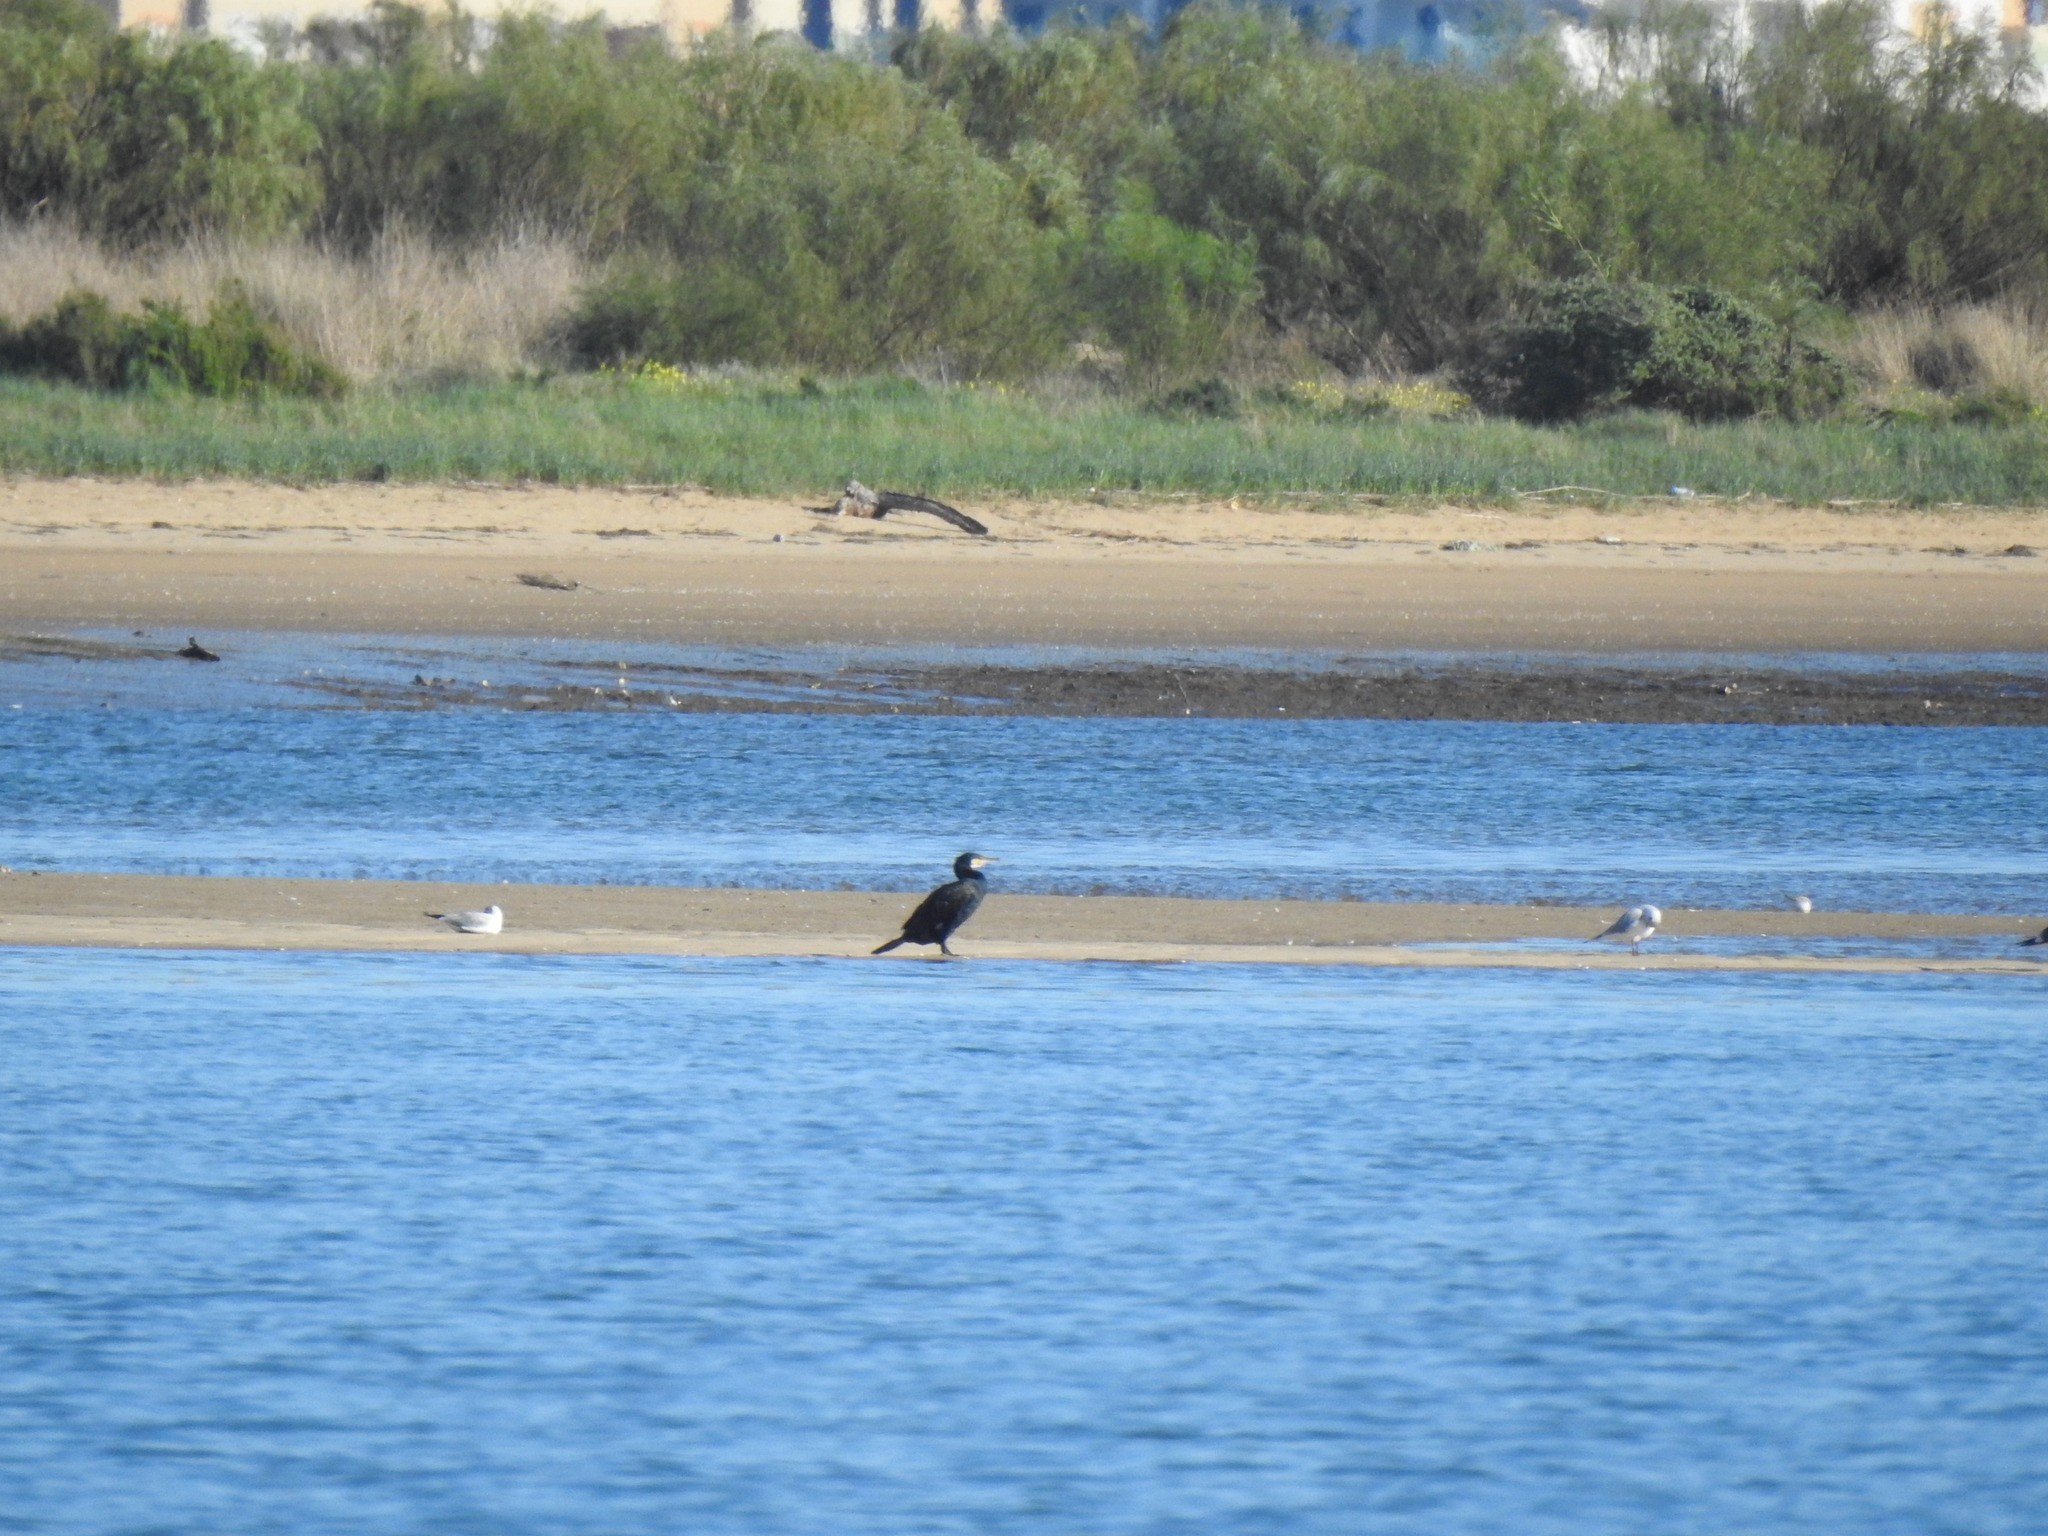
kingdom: Animalia
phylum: Chordata
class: Aves
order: Suliformes
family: Phalacrocoracidae
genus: Phalacrocorax
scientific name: Phalacrocorax carbo
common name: Great cormorant
